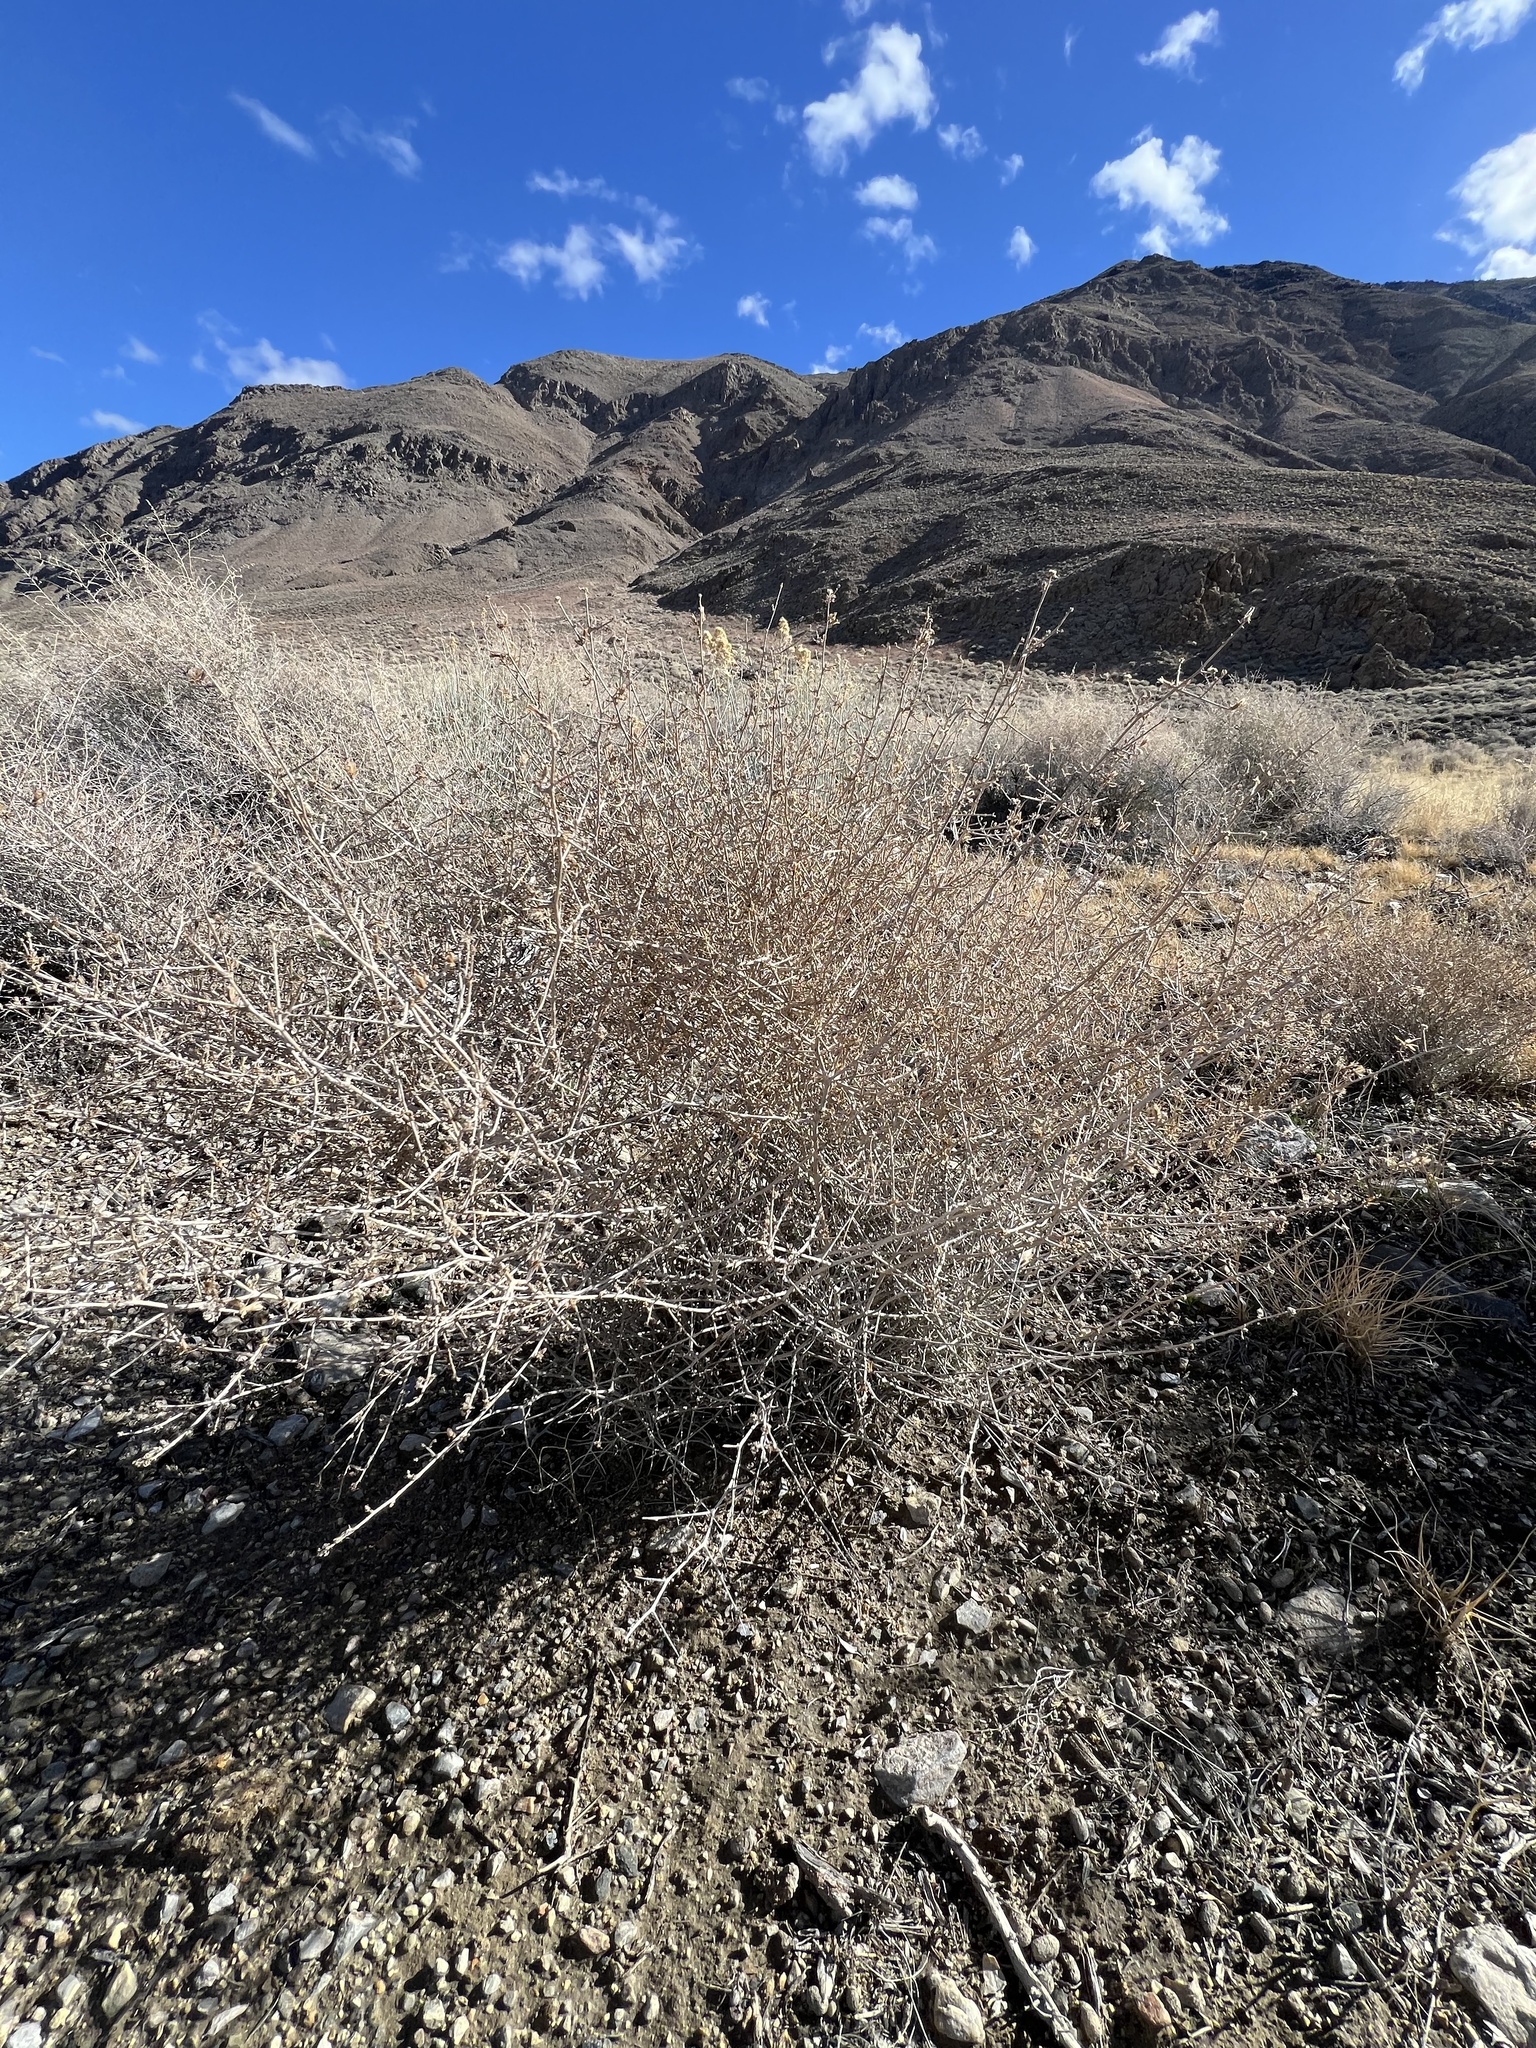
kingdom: Plantae
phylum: Tracheophyta
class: Magnoliopsida
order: Asterales
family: Asteraceae
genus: Stephanomeria
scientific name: Stephanomeria pauciflora
